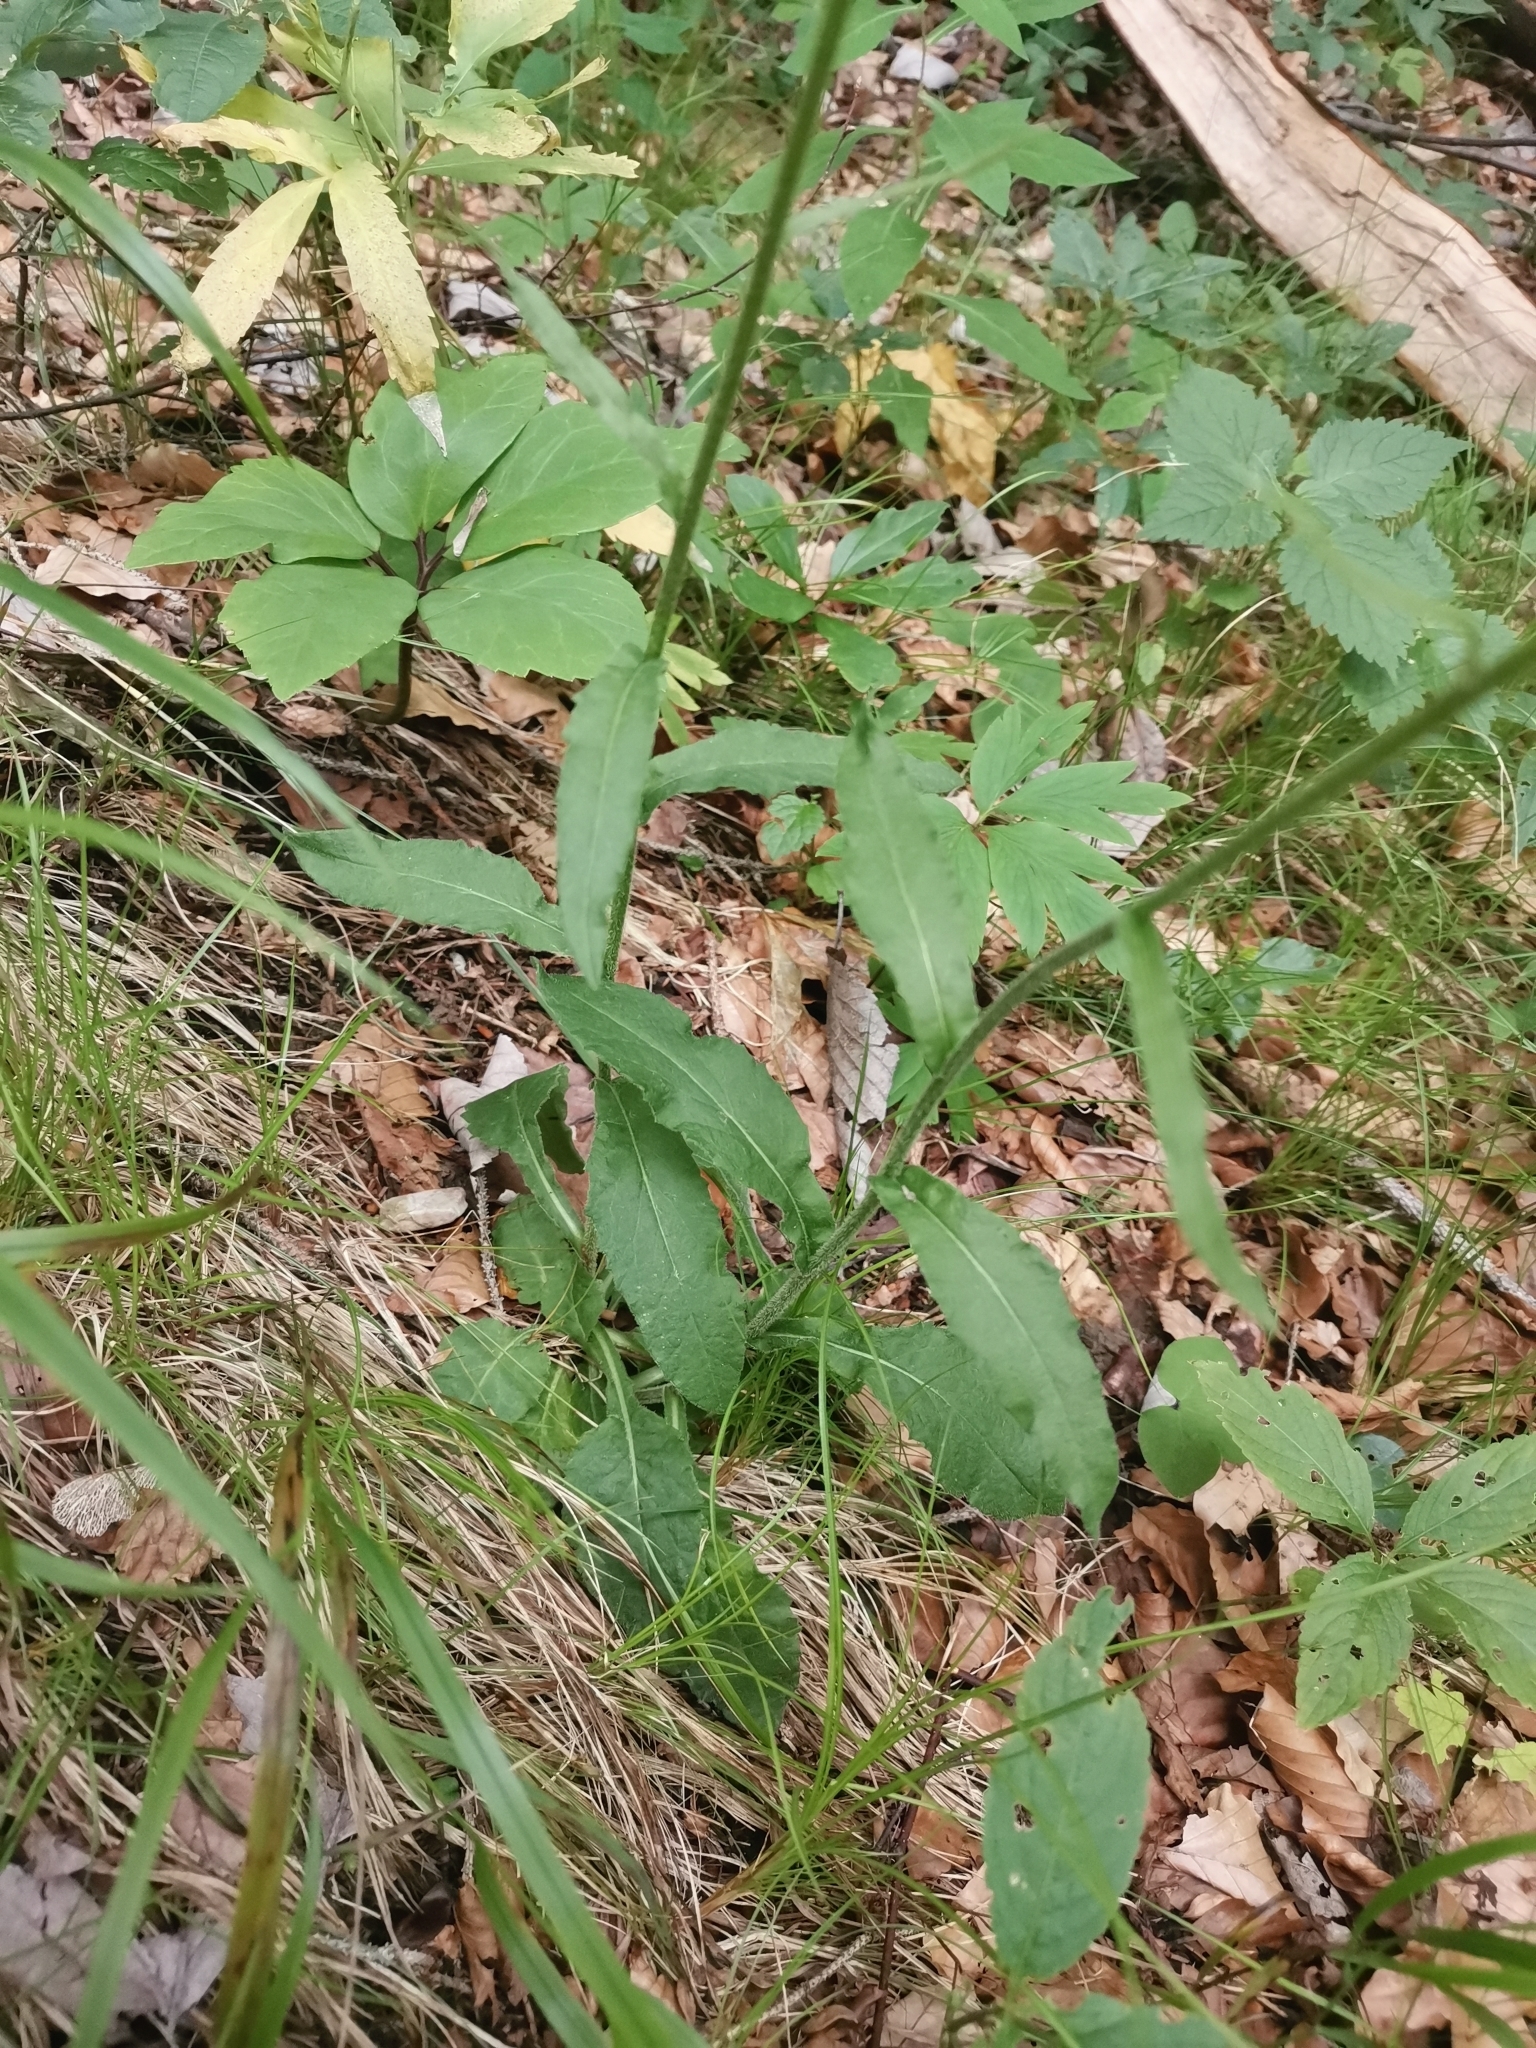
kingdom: Plantae
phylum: Tracheophyta
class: Magnoliopsida
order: Asterales
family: Asteraceae
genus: Tephroseris
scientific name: Tephroseris longifolia
